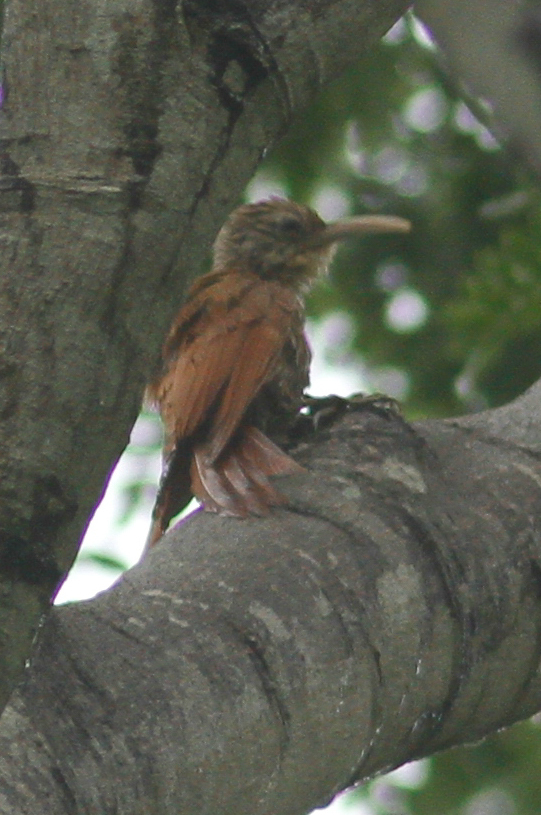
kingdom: Animalia
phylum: Chordata
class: Aves
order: Passeriformes
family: Furnariidae
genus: Lepidocolaptes
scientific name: Lepidocolaptes souleyetii
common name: Streak-headed woodcreeper
